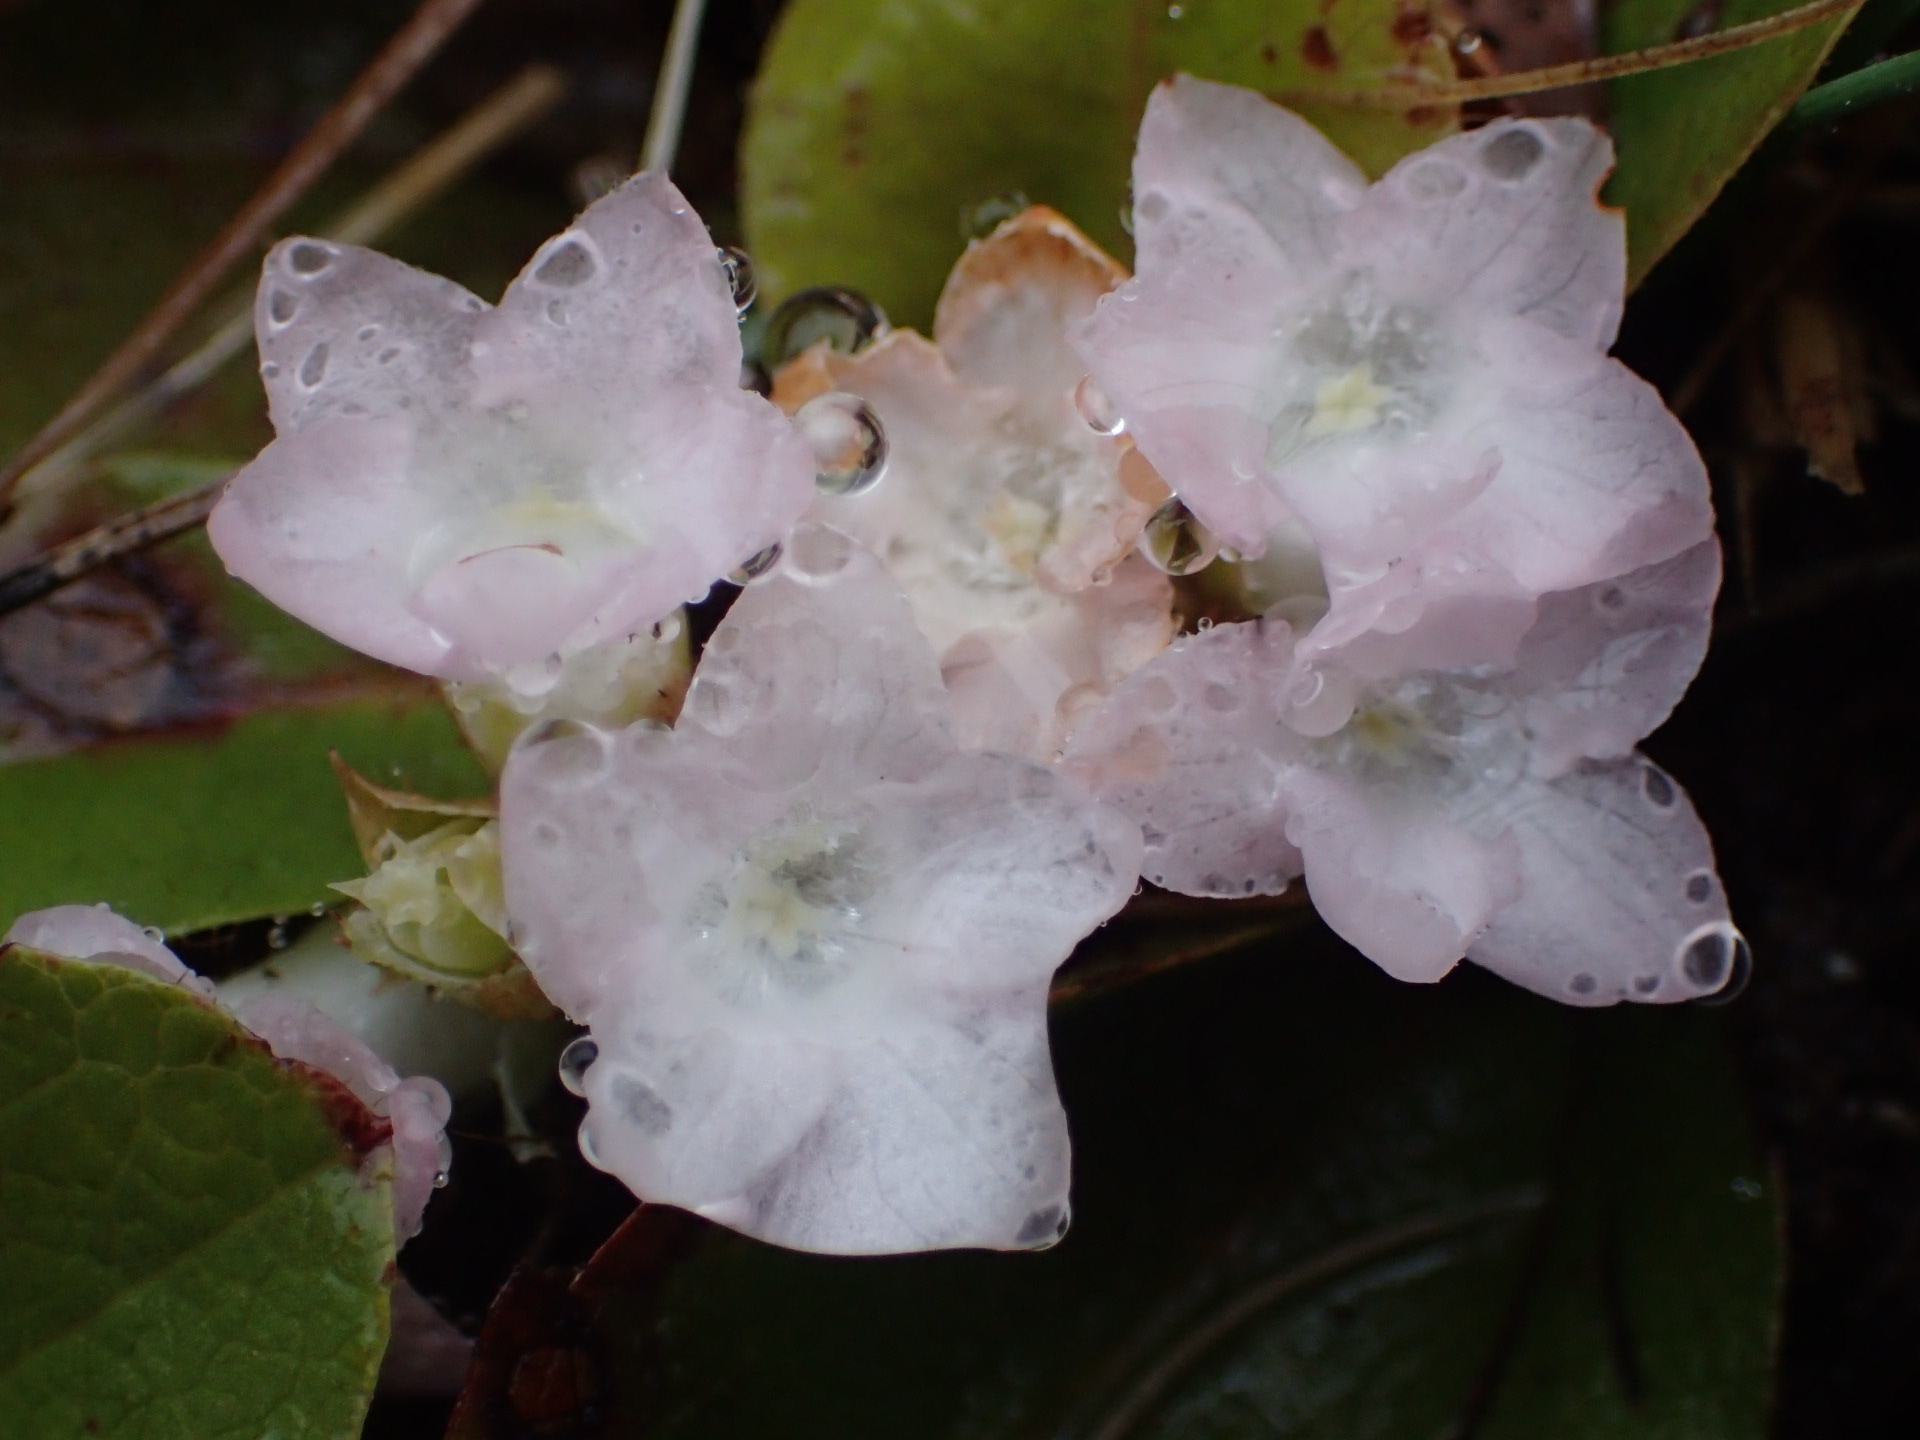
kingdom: Plantae
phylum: Tracheophyta
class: Magnoliopsida
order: Ericales
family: Ericaceae
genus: Epigaea
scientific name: Epigaea repens
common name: Gravelroot
